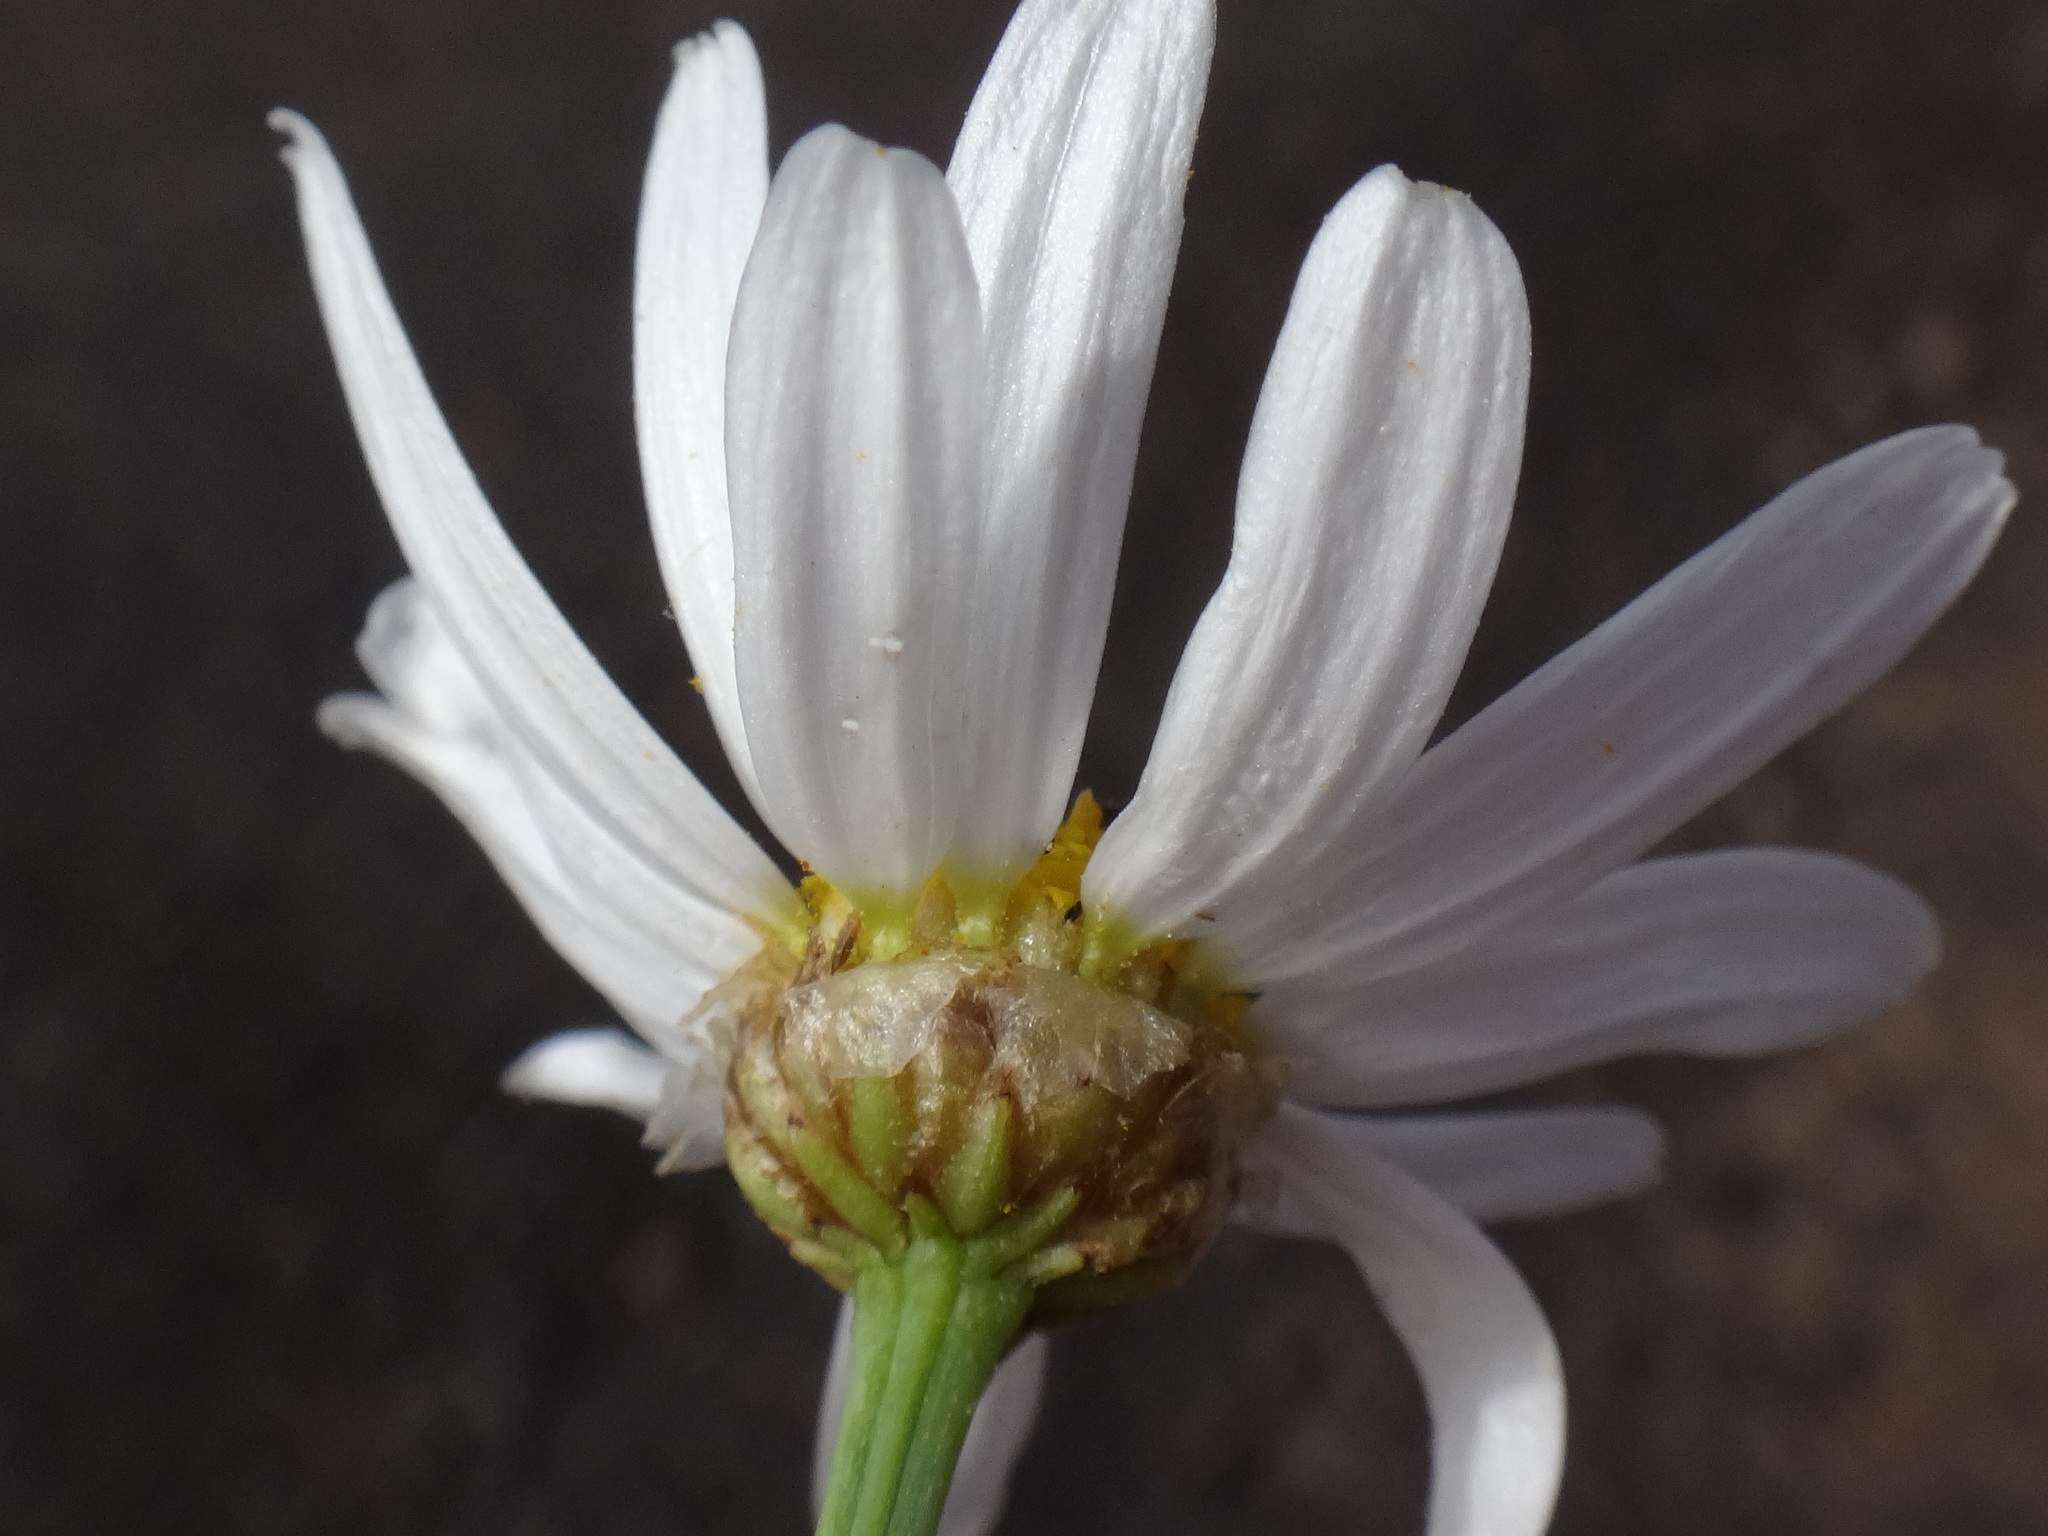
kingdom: Plantae
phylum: Tracheophyta
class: Magnoliopsida
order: Asterales
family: Asteraceae
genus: Argyranthemum
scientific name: Argyranthemum gracile
